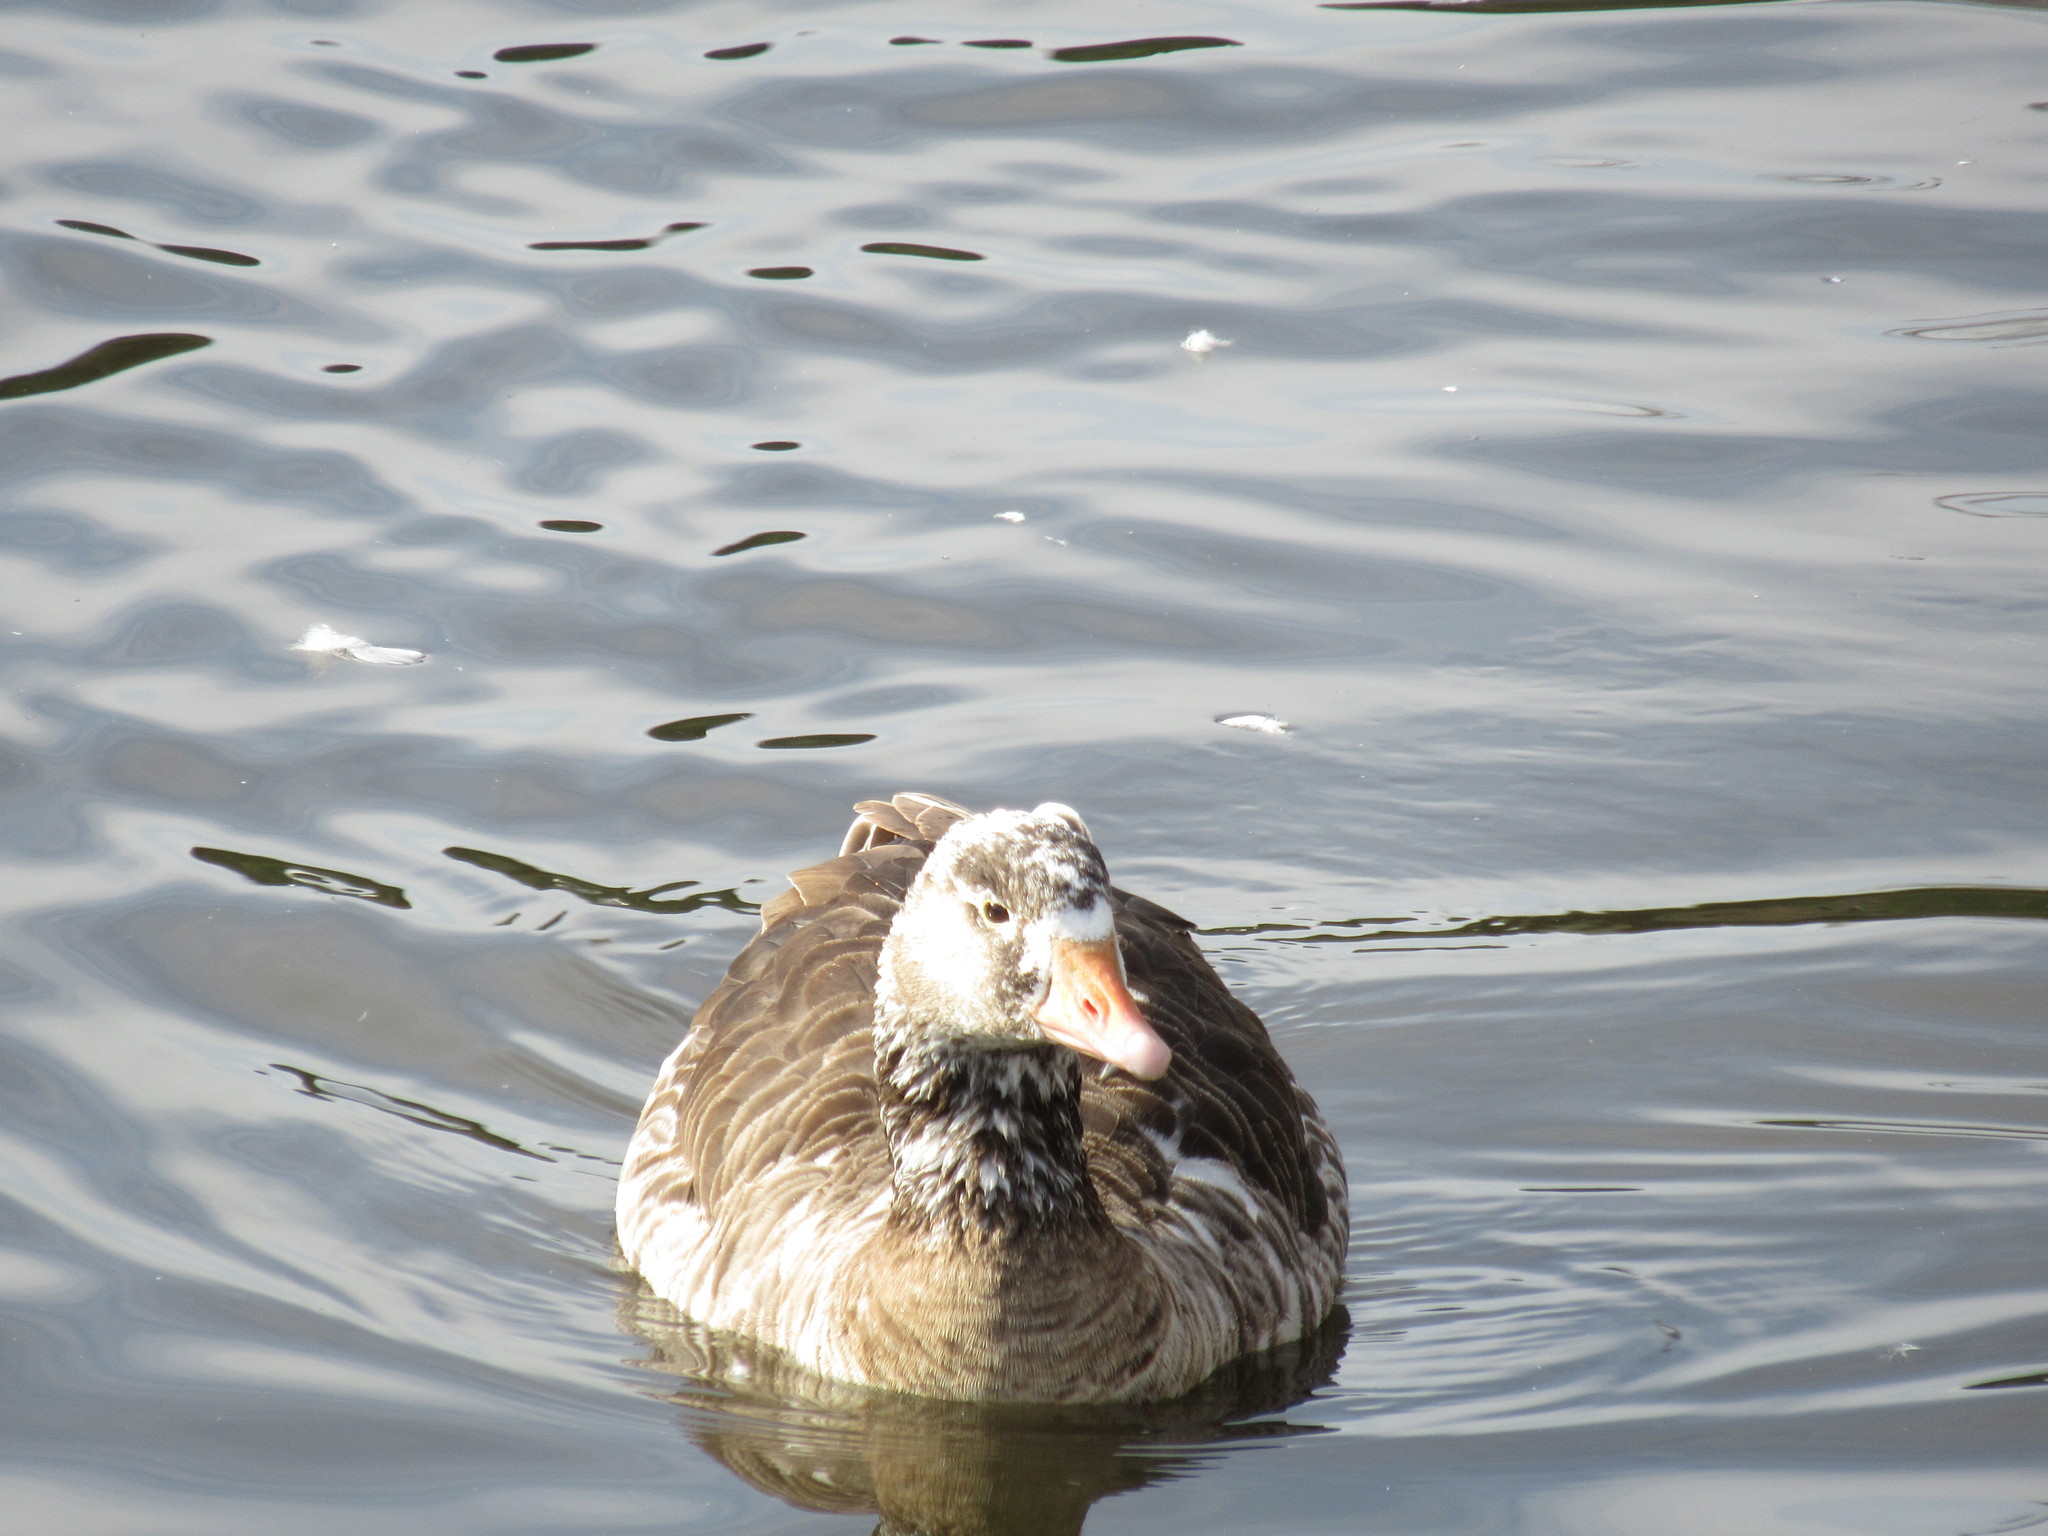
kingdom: Animalia
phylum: Chordata
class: Aves
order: Anseriformes
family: Anatidae
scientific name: Anatidae
